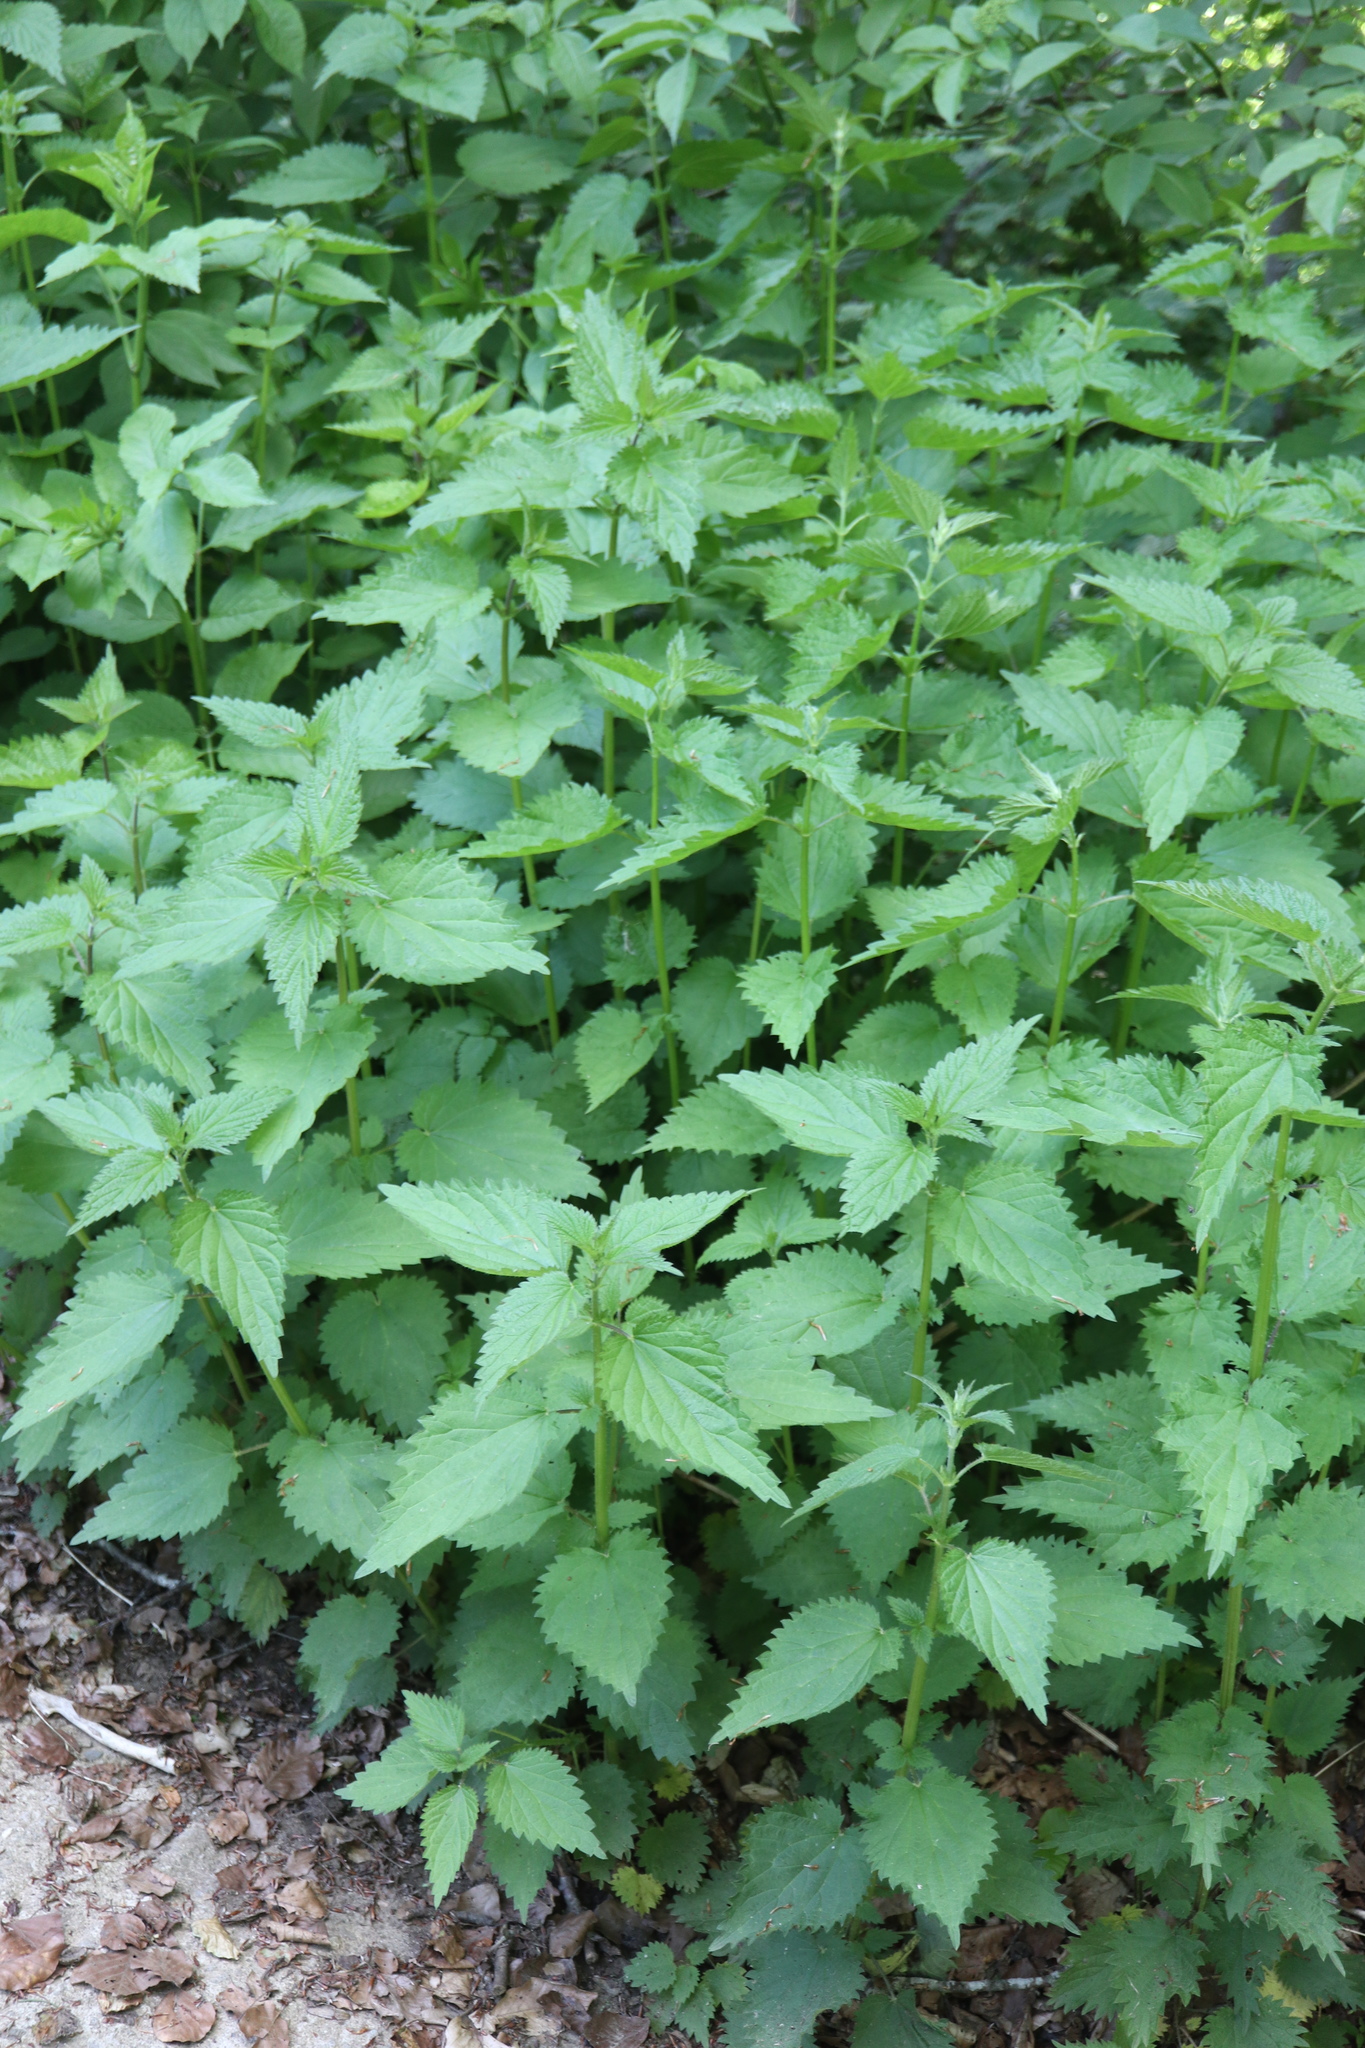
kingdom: Plantae
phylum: Tracheophyta
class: Magnoliopsida
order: Rosales
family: Urticaceae
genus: Urtica
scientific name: Urtica dioica
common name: Common nettle
